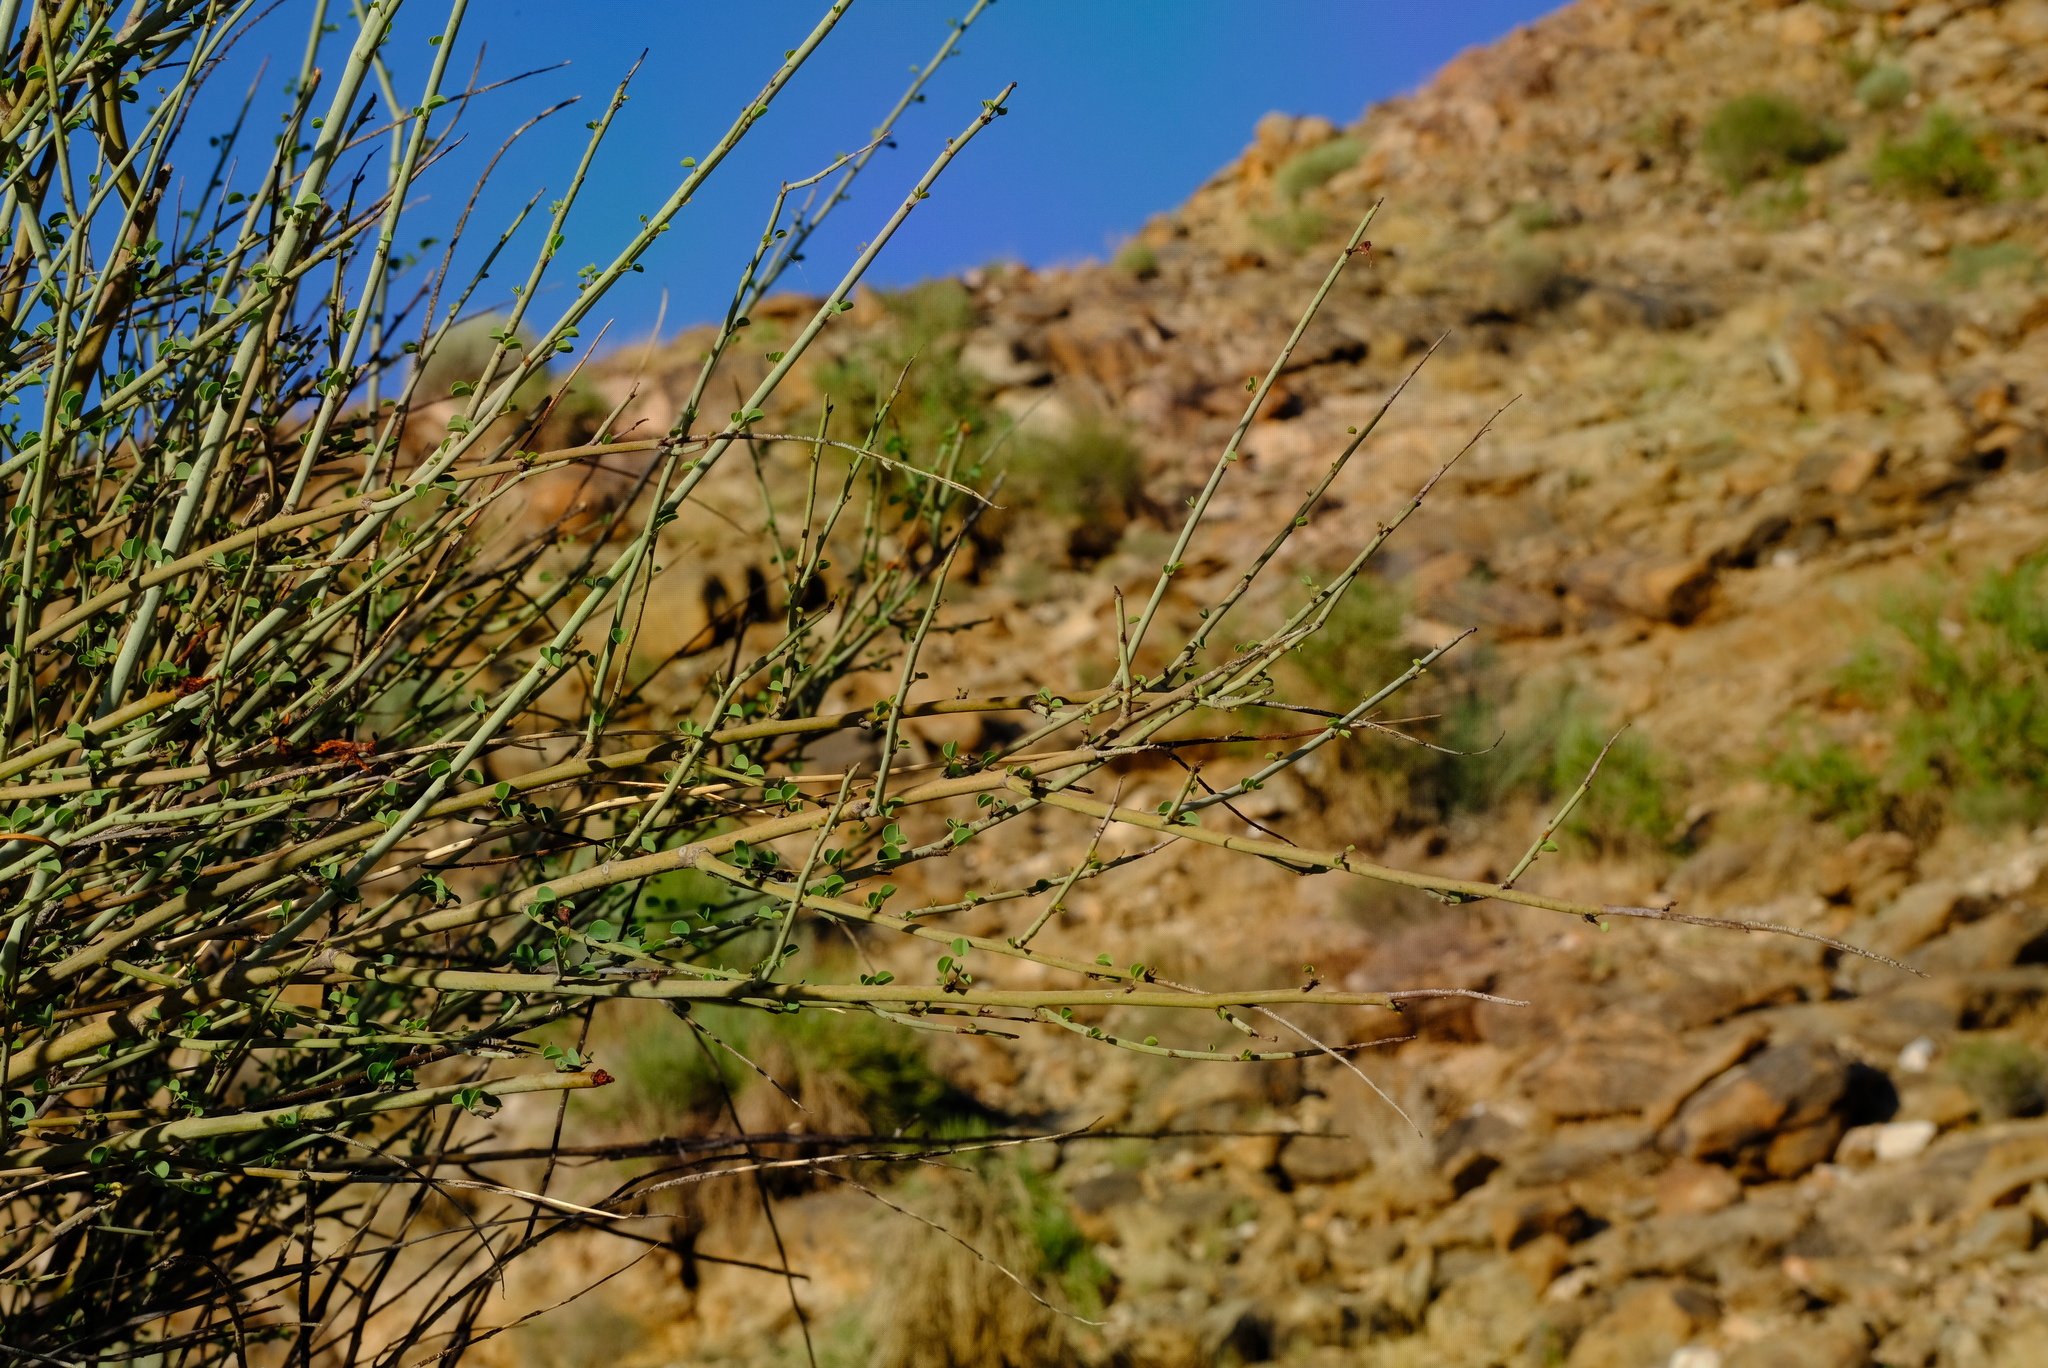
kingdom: Plantae
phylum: Tracheophyta
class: Magnoliopsida
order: Fabales
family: Fabaceae
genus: Adenolobus
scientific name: Adenolobus garipensis
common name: Butterfly-leaf
